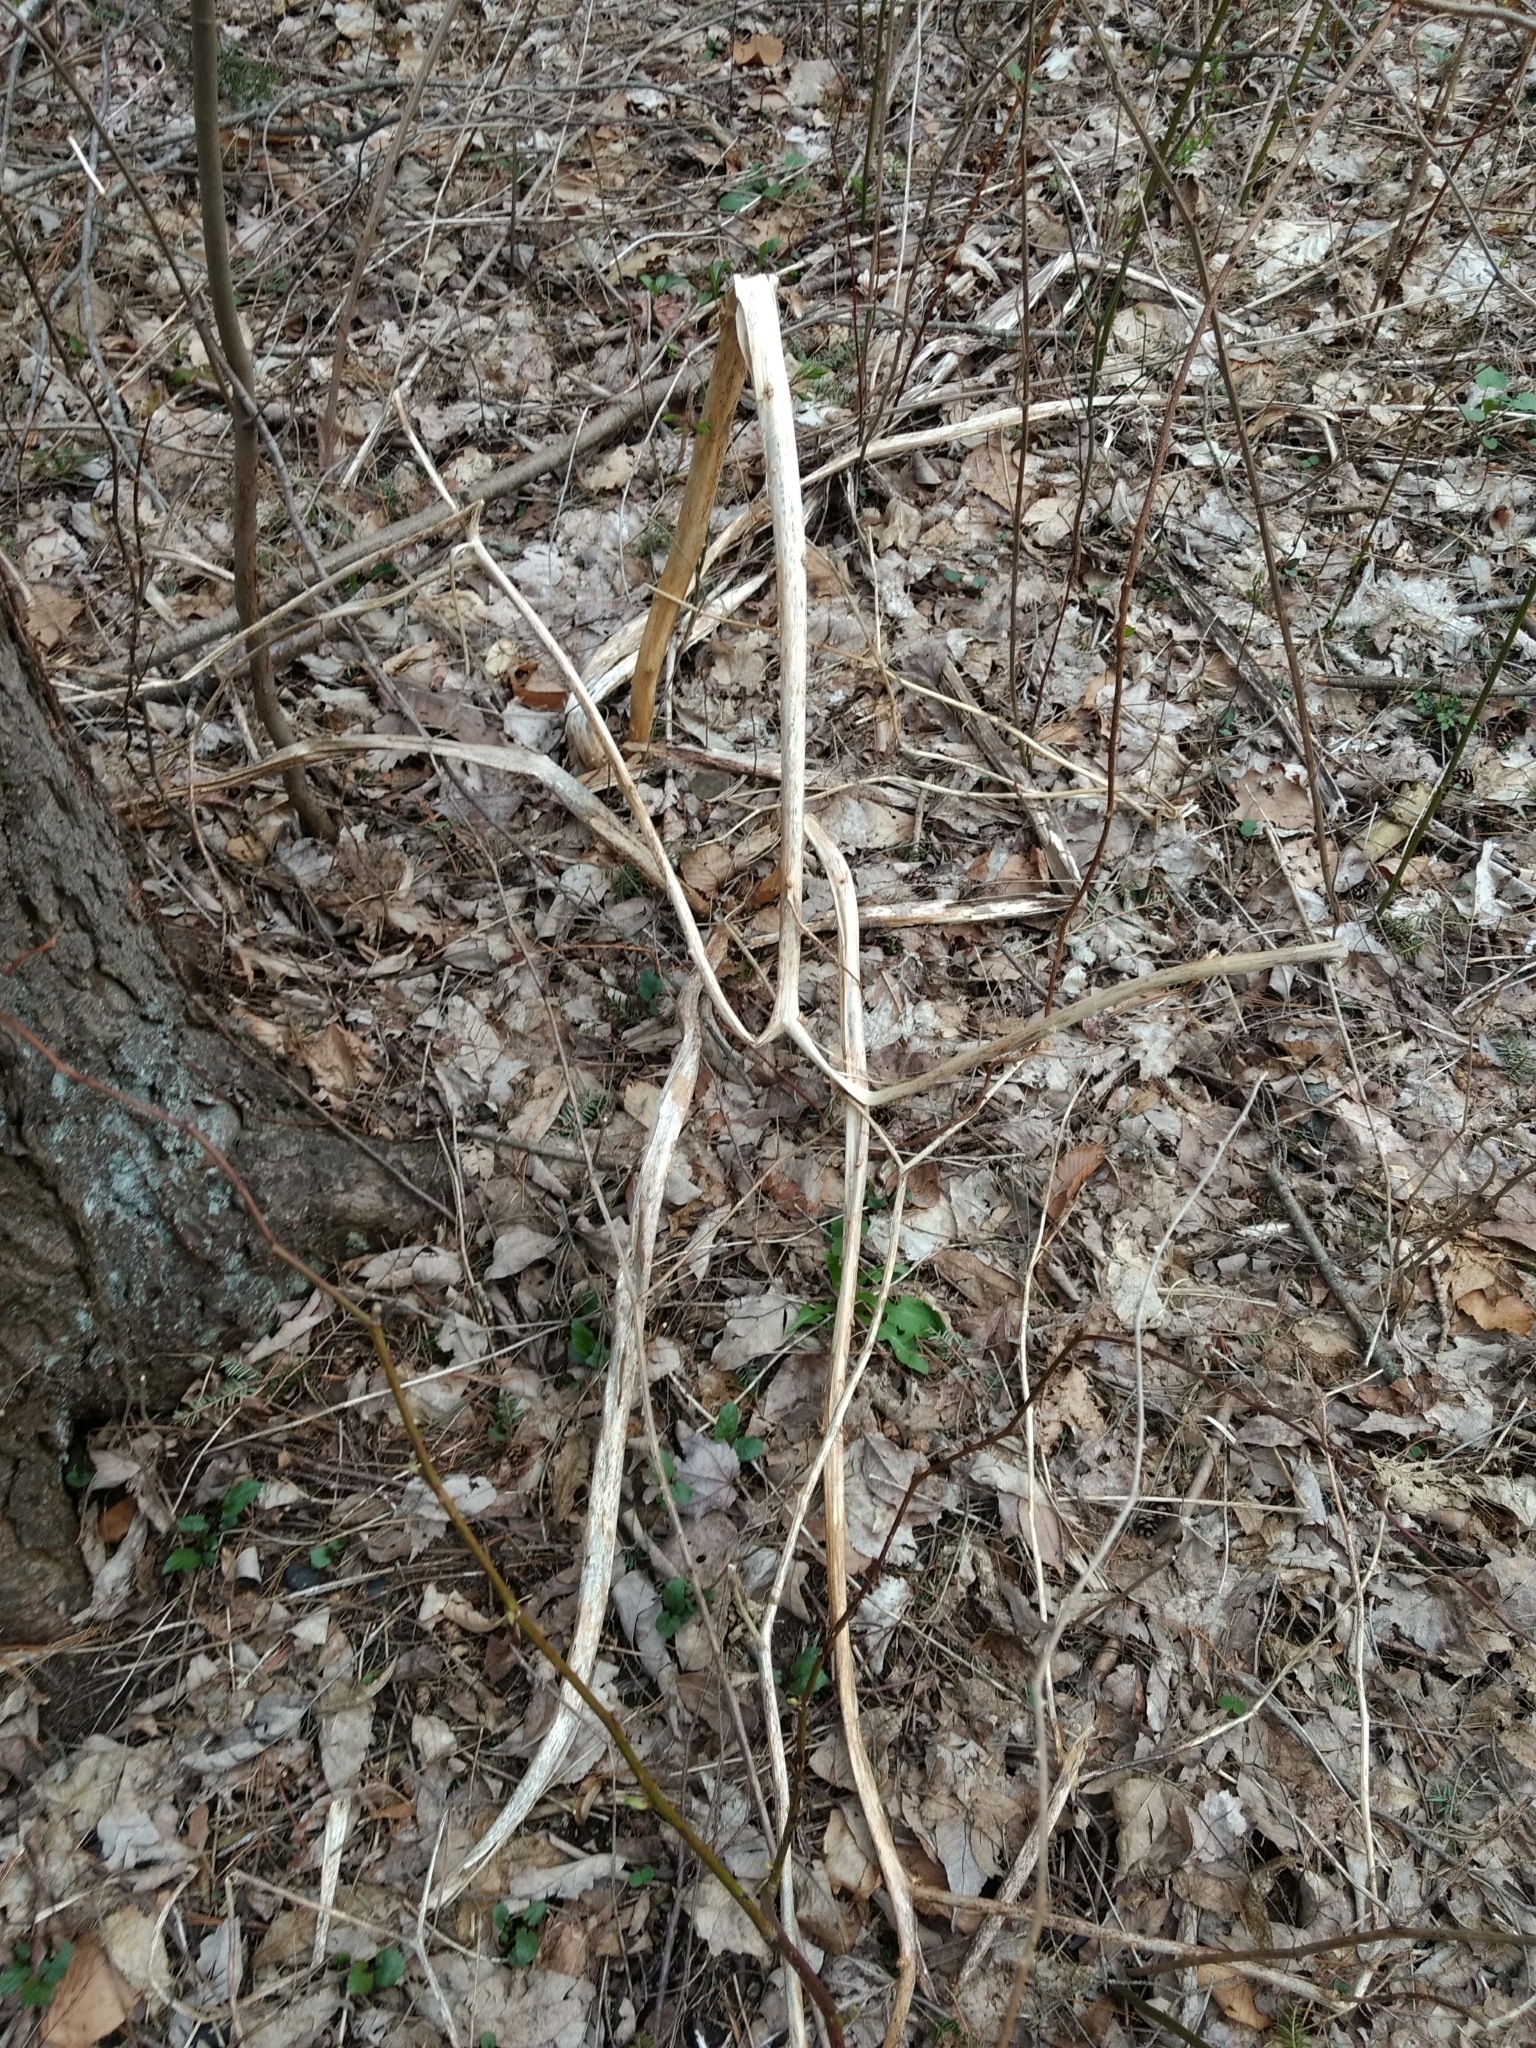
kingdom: Plantae
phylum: Tracheophyta
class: Magnoliopsida
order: Caryophyllales
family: Phytolaccaceae
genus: Phytolacca
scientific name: Phytolacca americana
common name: American pokeweed
